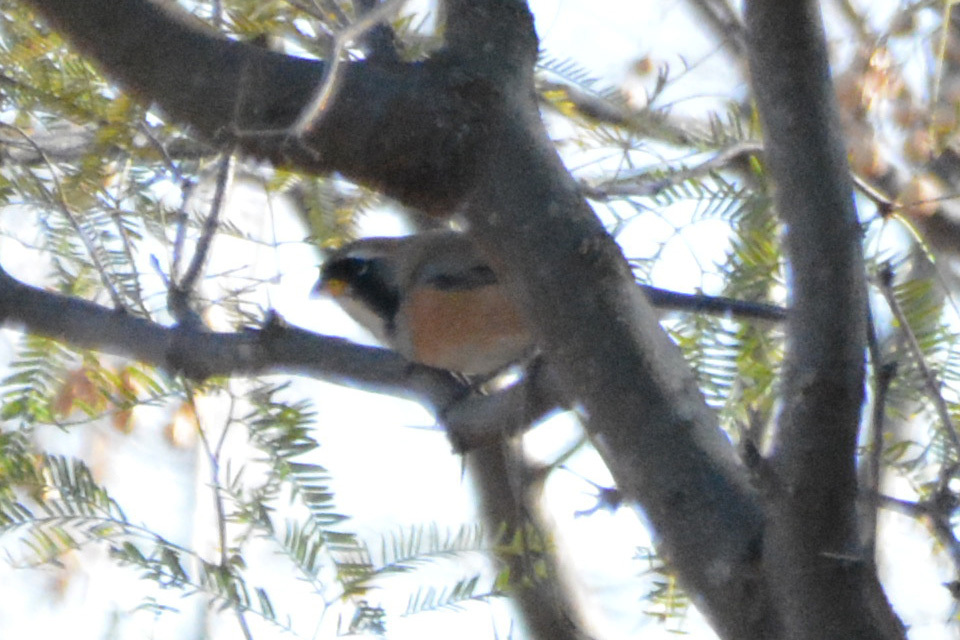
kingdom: Animalia
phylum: Chordata
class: Aves
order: Passeriformes
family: Thraupidae
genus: Saltatricula
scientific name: Saltatricula multicolor
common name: Many-colored chaco finch
